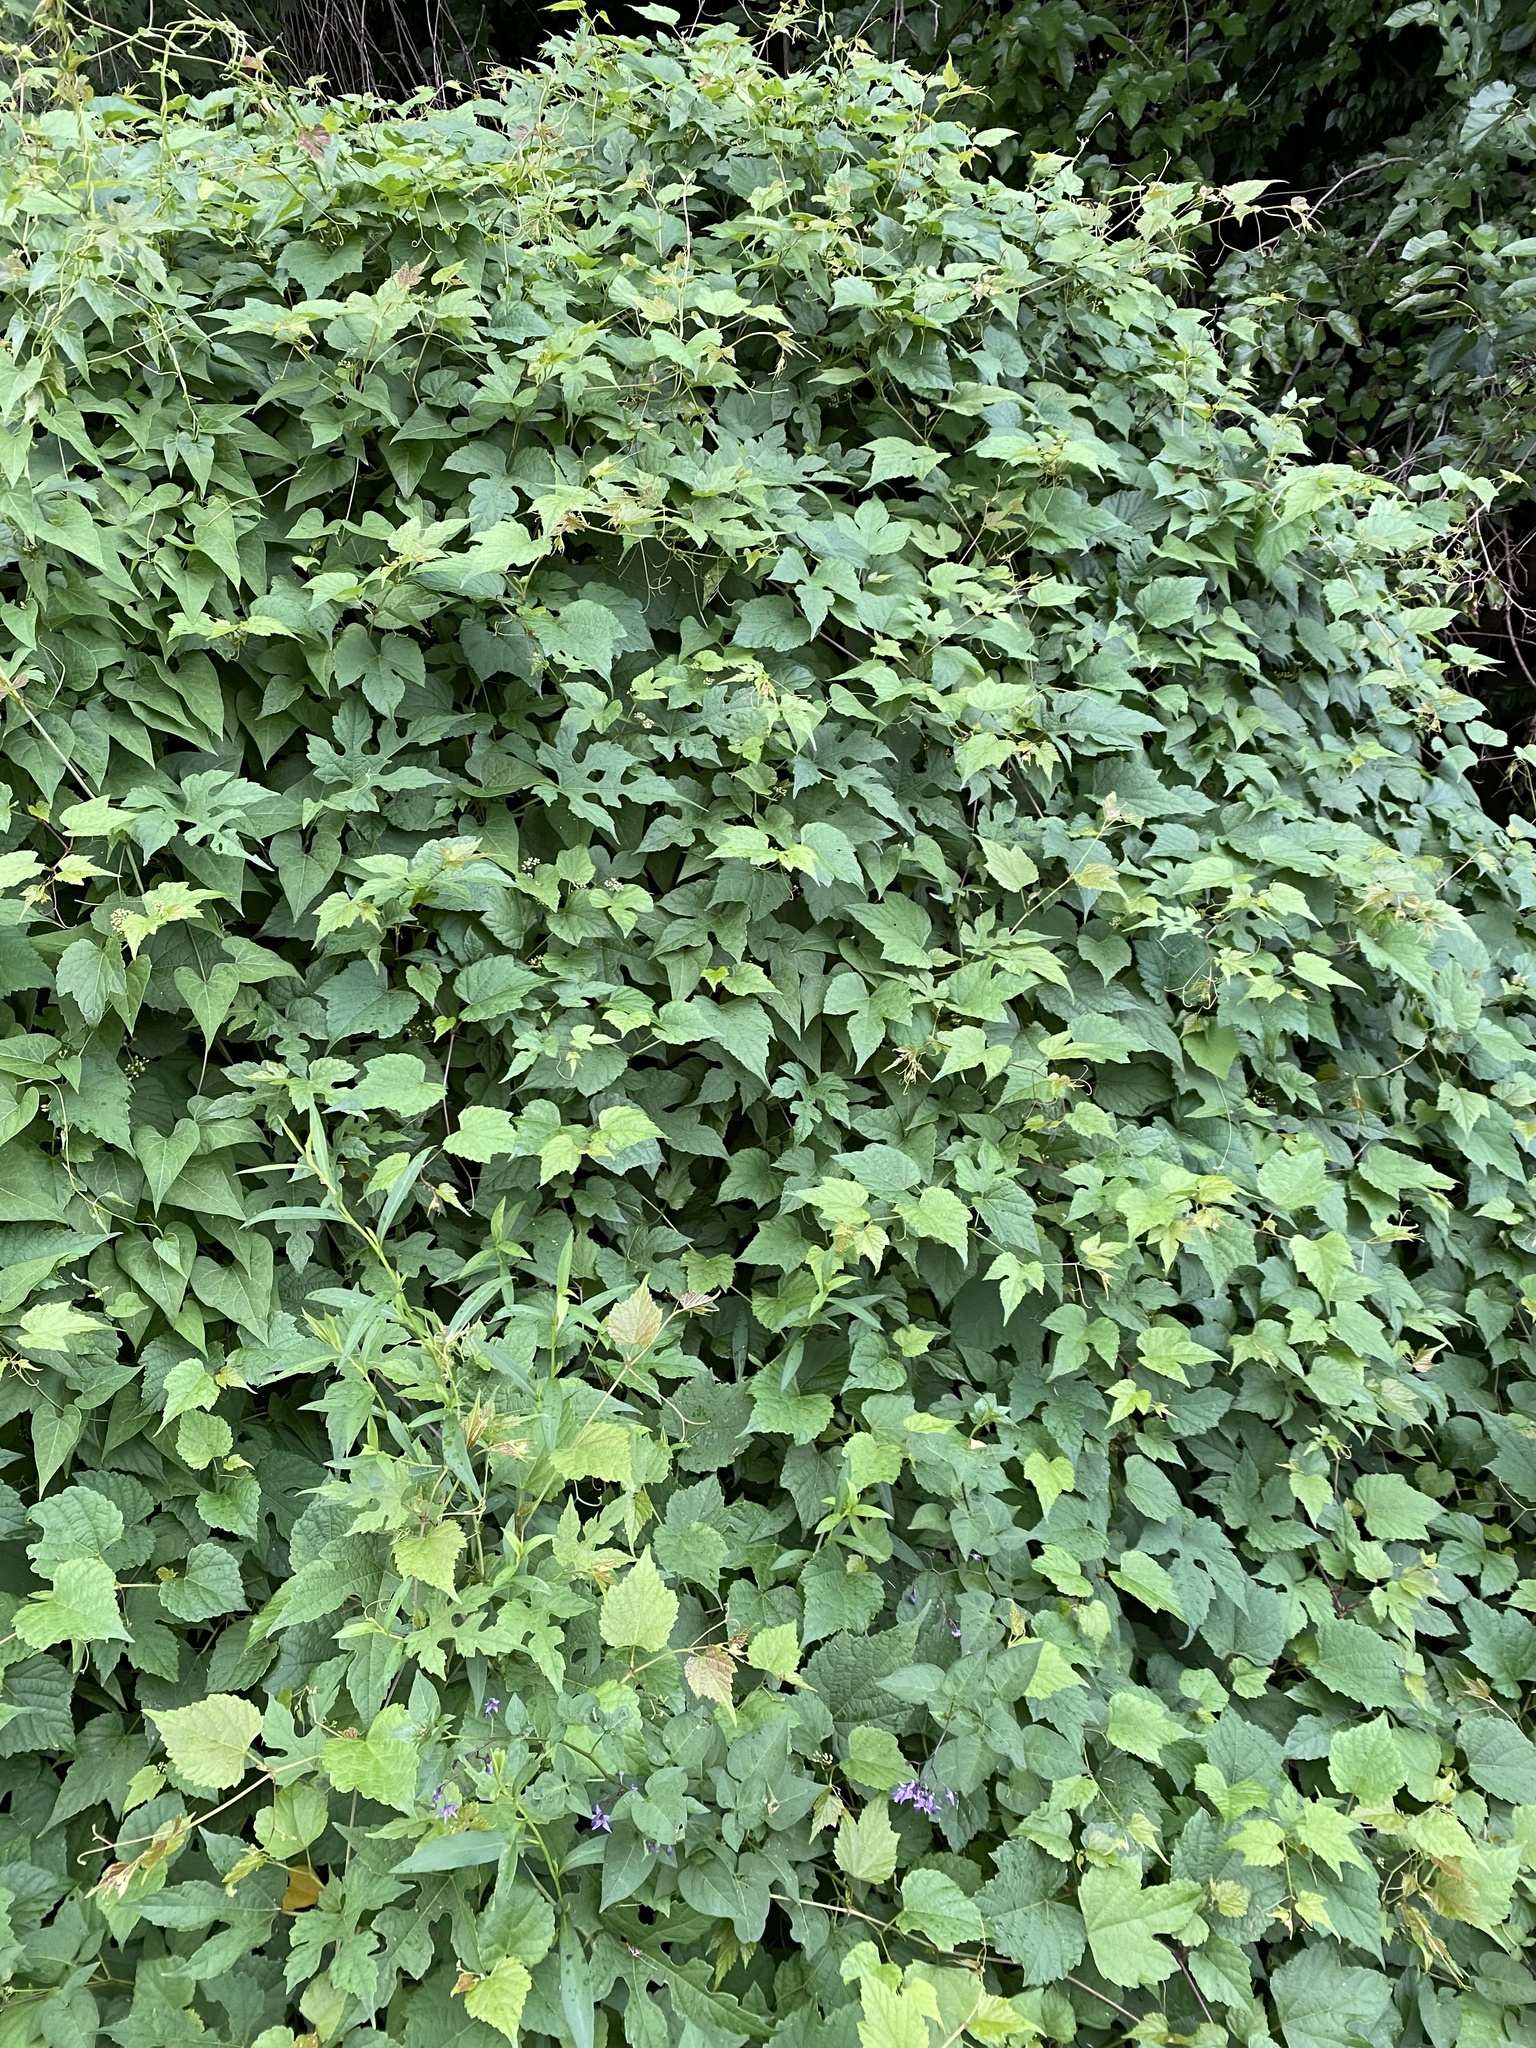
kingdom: Plantae
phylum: Tracheophyta
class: Magnoliopsida
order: Vitales
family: Vitaceae
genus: Ampelopsis
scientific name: Ampelopsis glandulosa
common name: Amur peppervine
